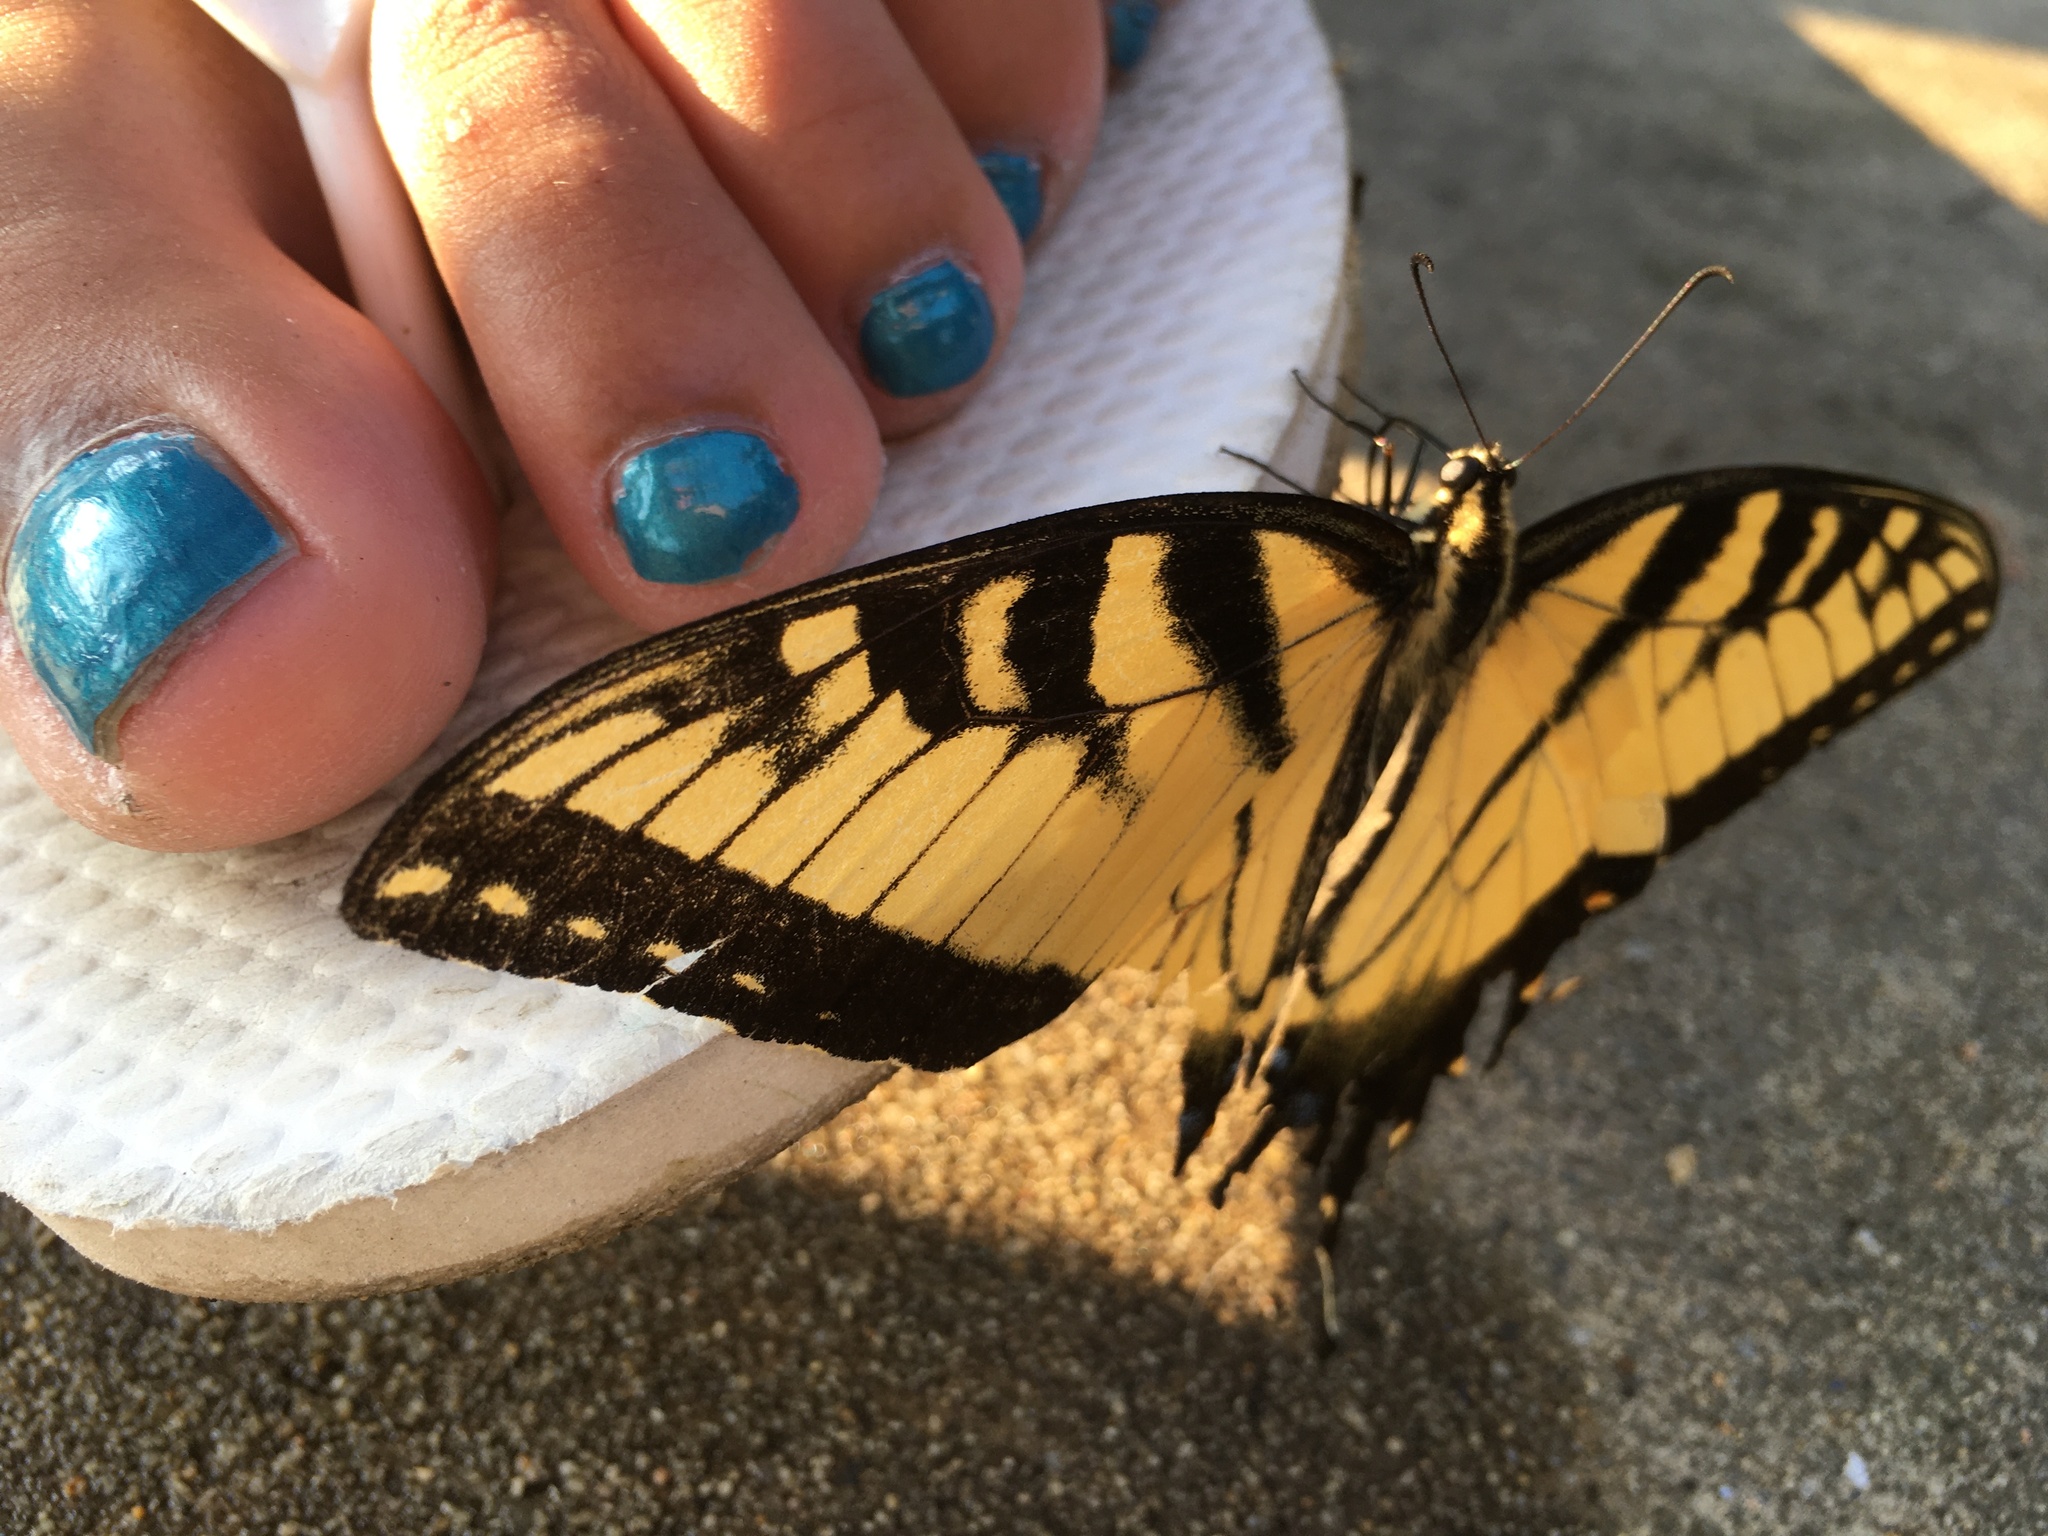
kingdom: Animalia
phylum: Arthropoda
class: Insecta
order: Lepidoptera
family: Papilionidae
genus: Papilio
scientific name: Papilio glaucus
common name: Tiger swallowtail
